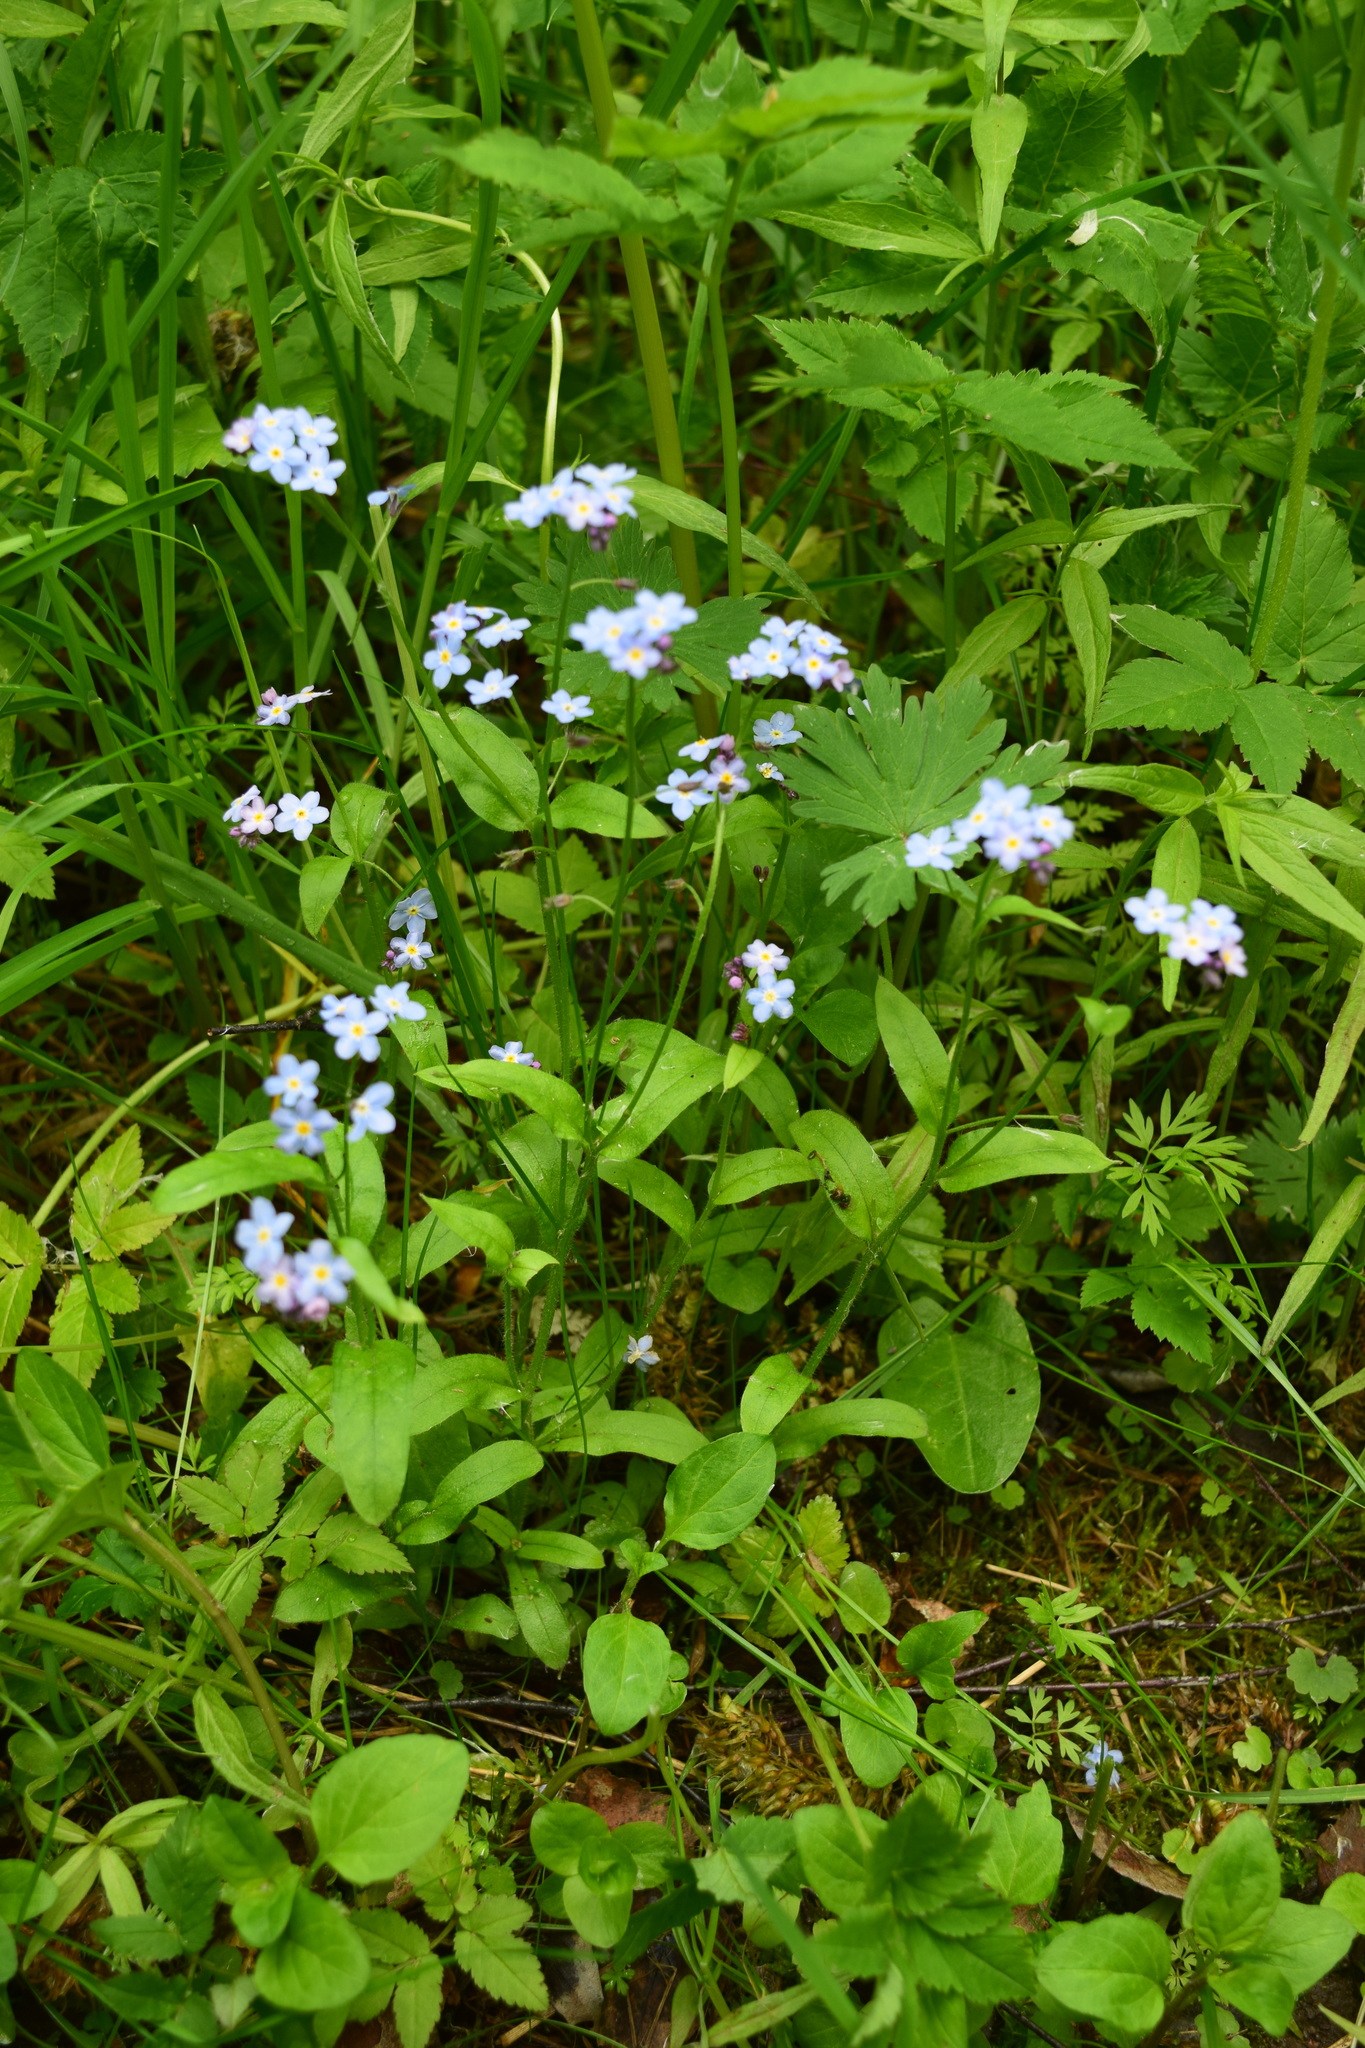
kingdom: Plantae
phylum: Tracheophyta
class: Magnoliopsida
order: Boraginales
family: Boraginaceae
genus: Myosotis
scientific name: Myosotis sylvatica
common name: Wood forget-me-not
